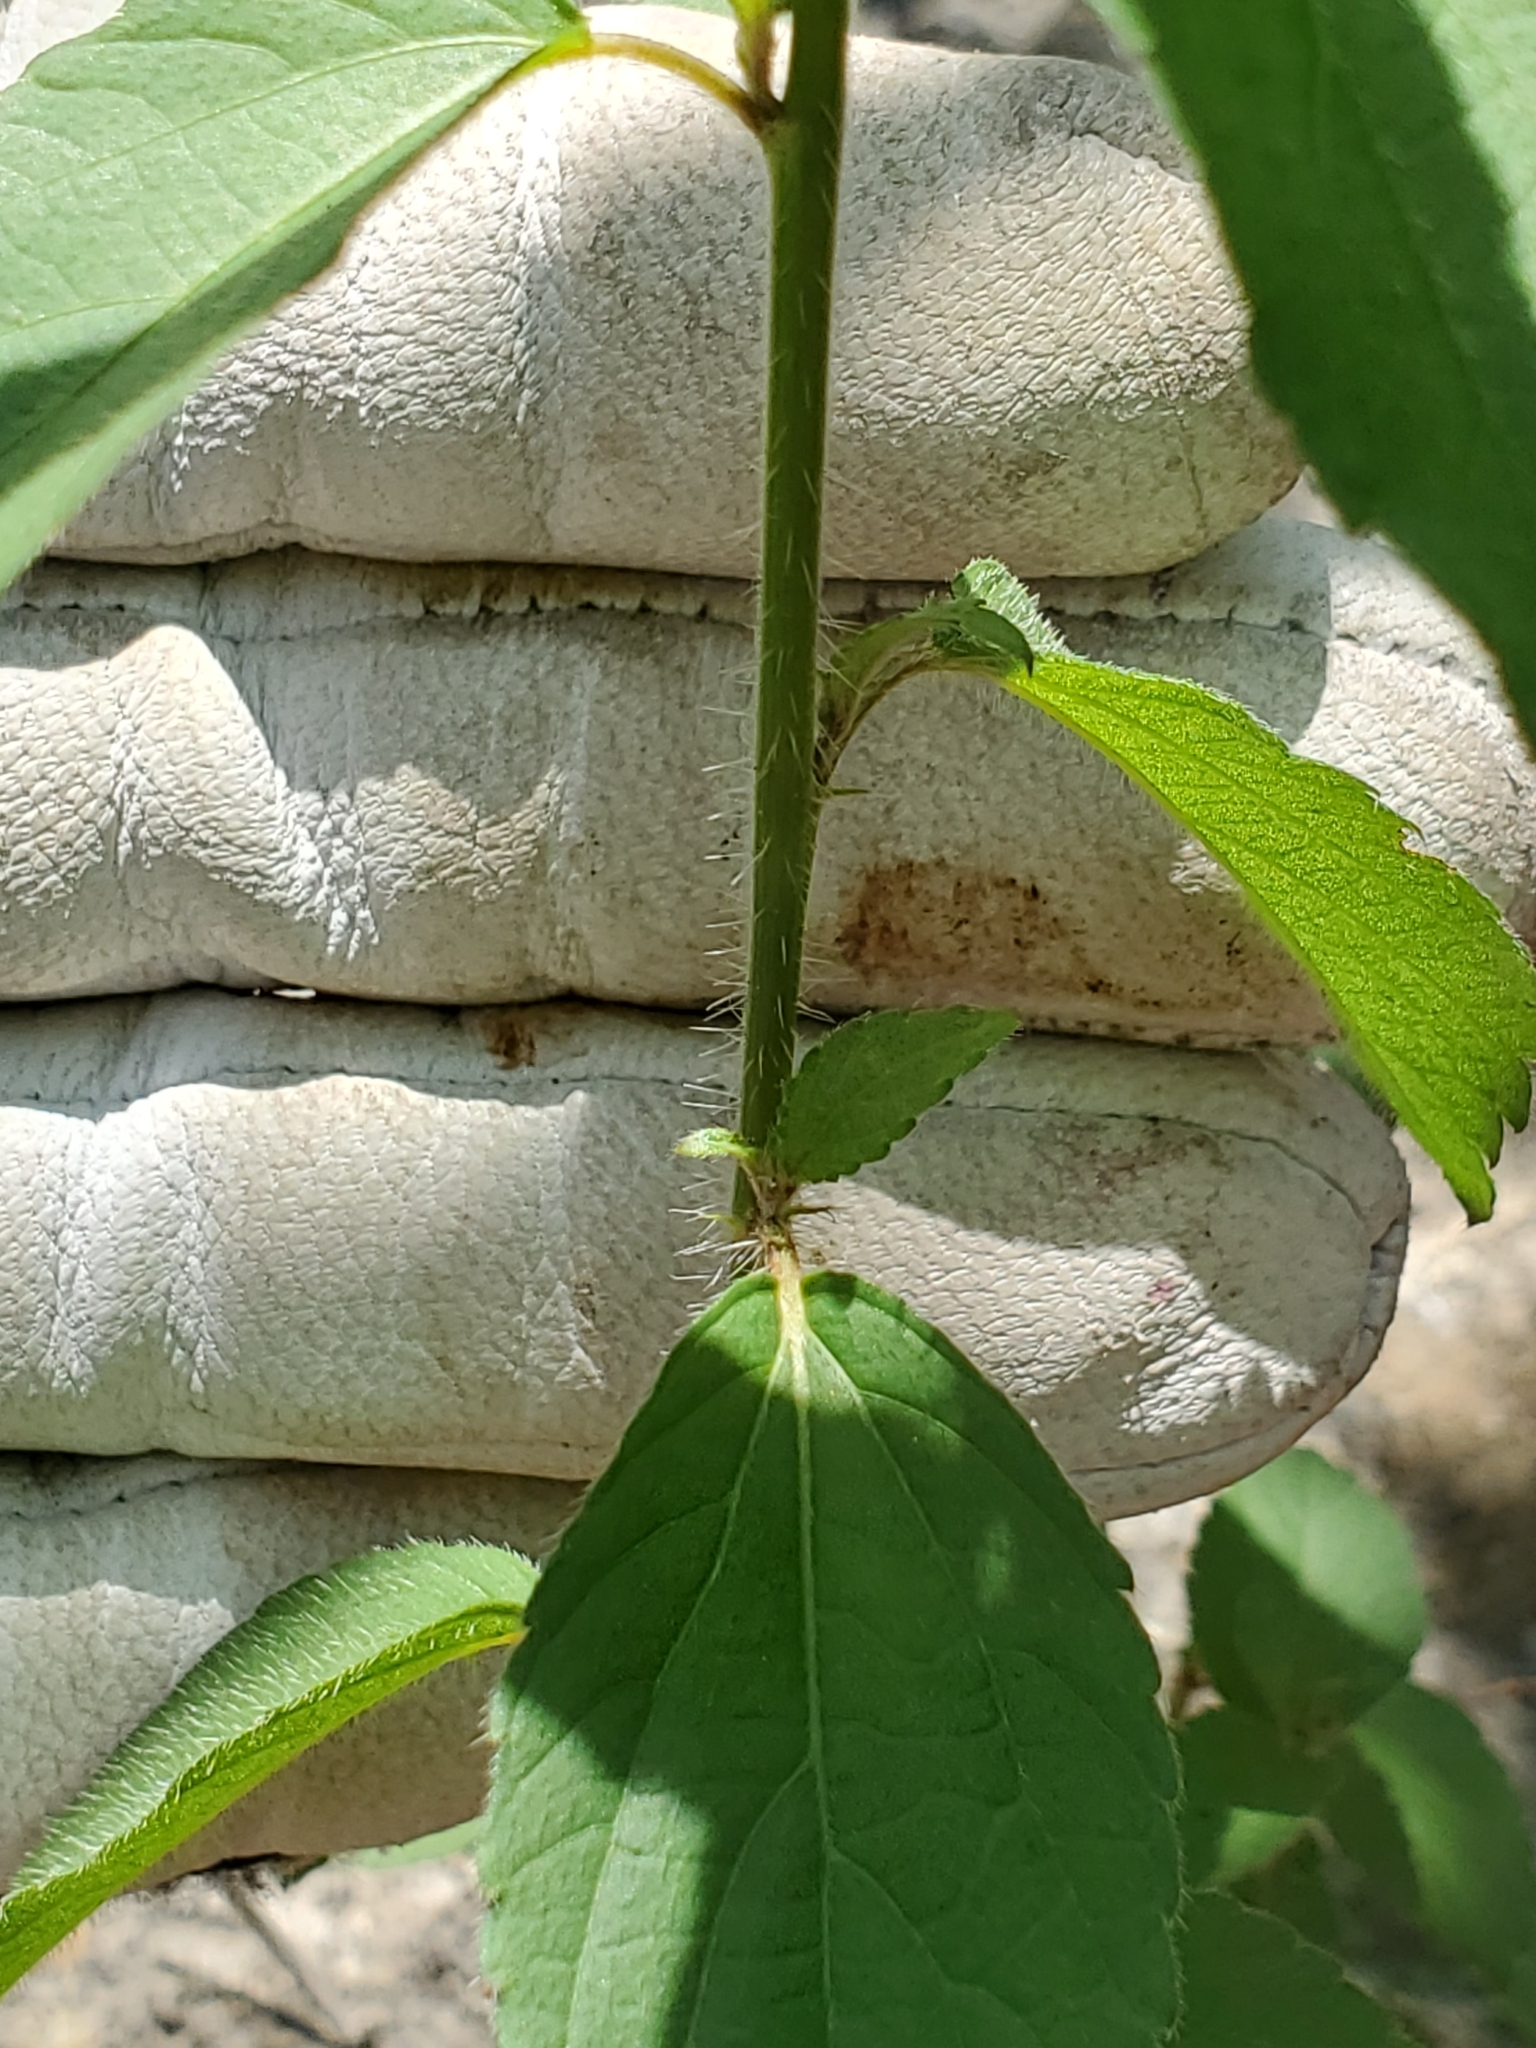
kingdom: Plantae
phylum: Tracheophyta
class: Magnoliopsida
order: Malpighiales
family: Euphorbiaceae
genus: Acalypha
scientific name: Acalypha phleoides
